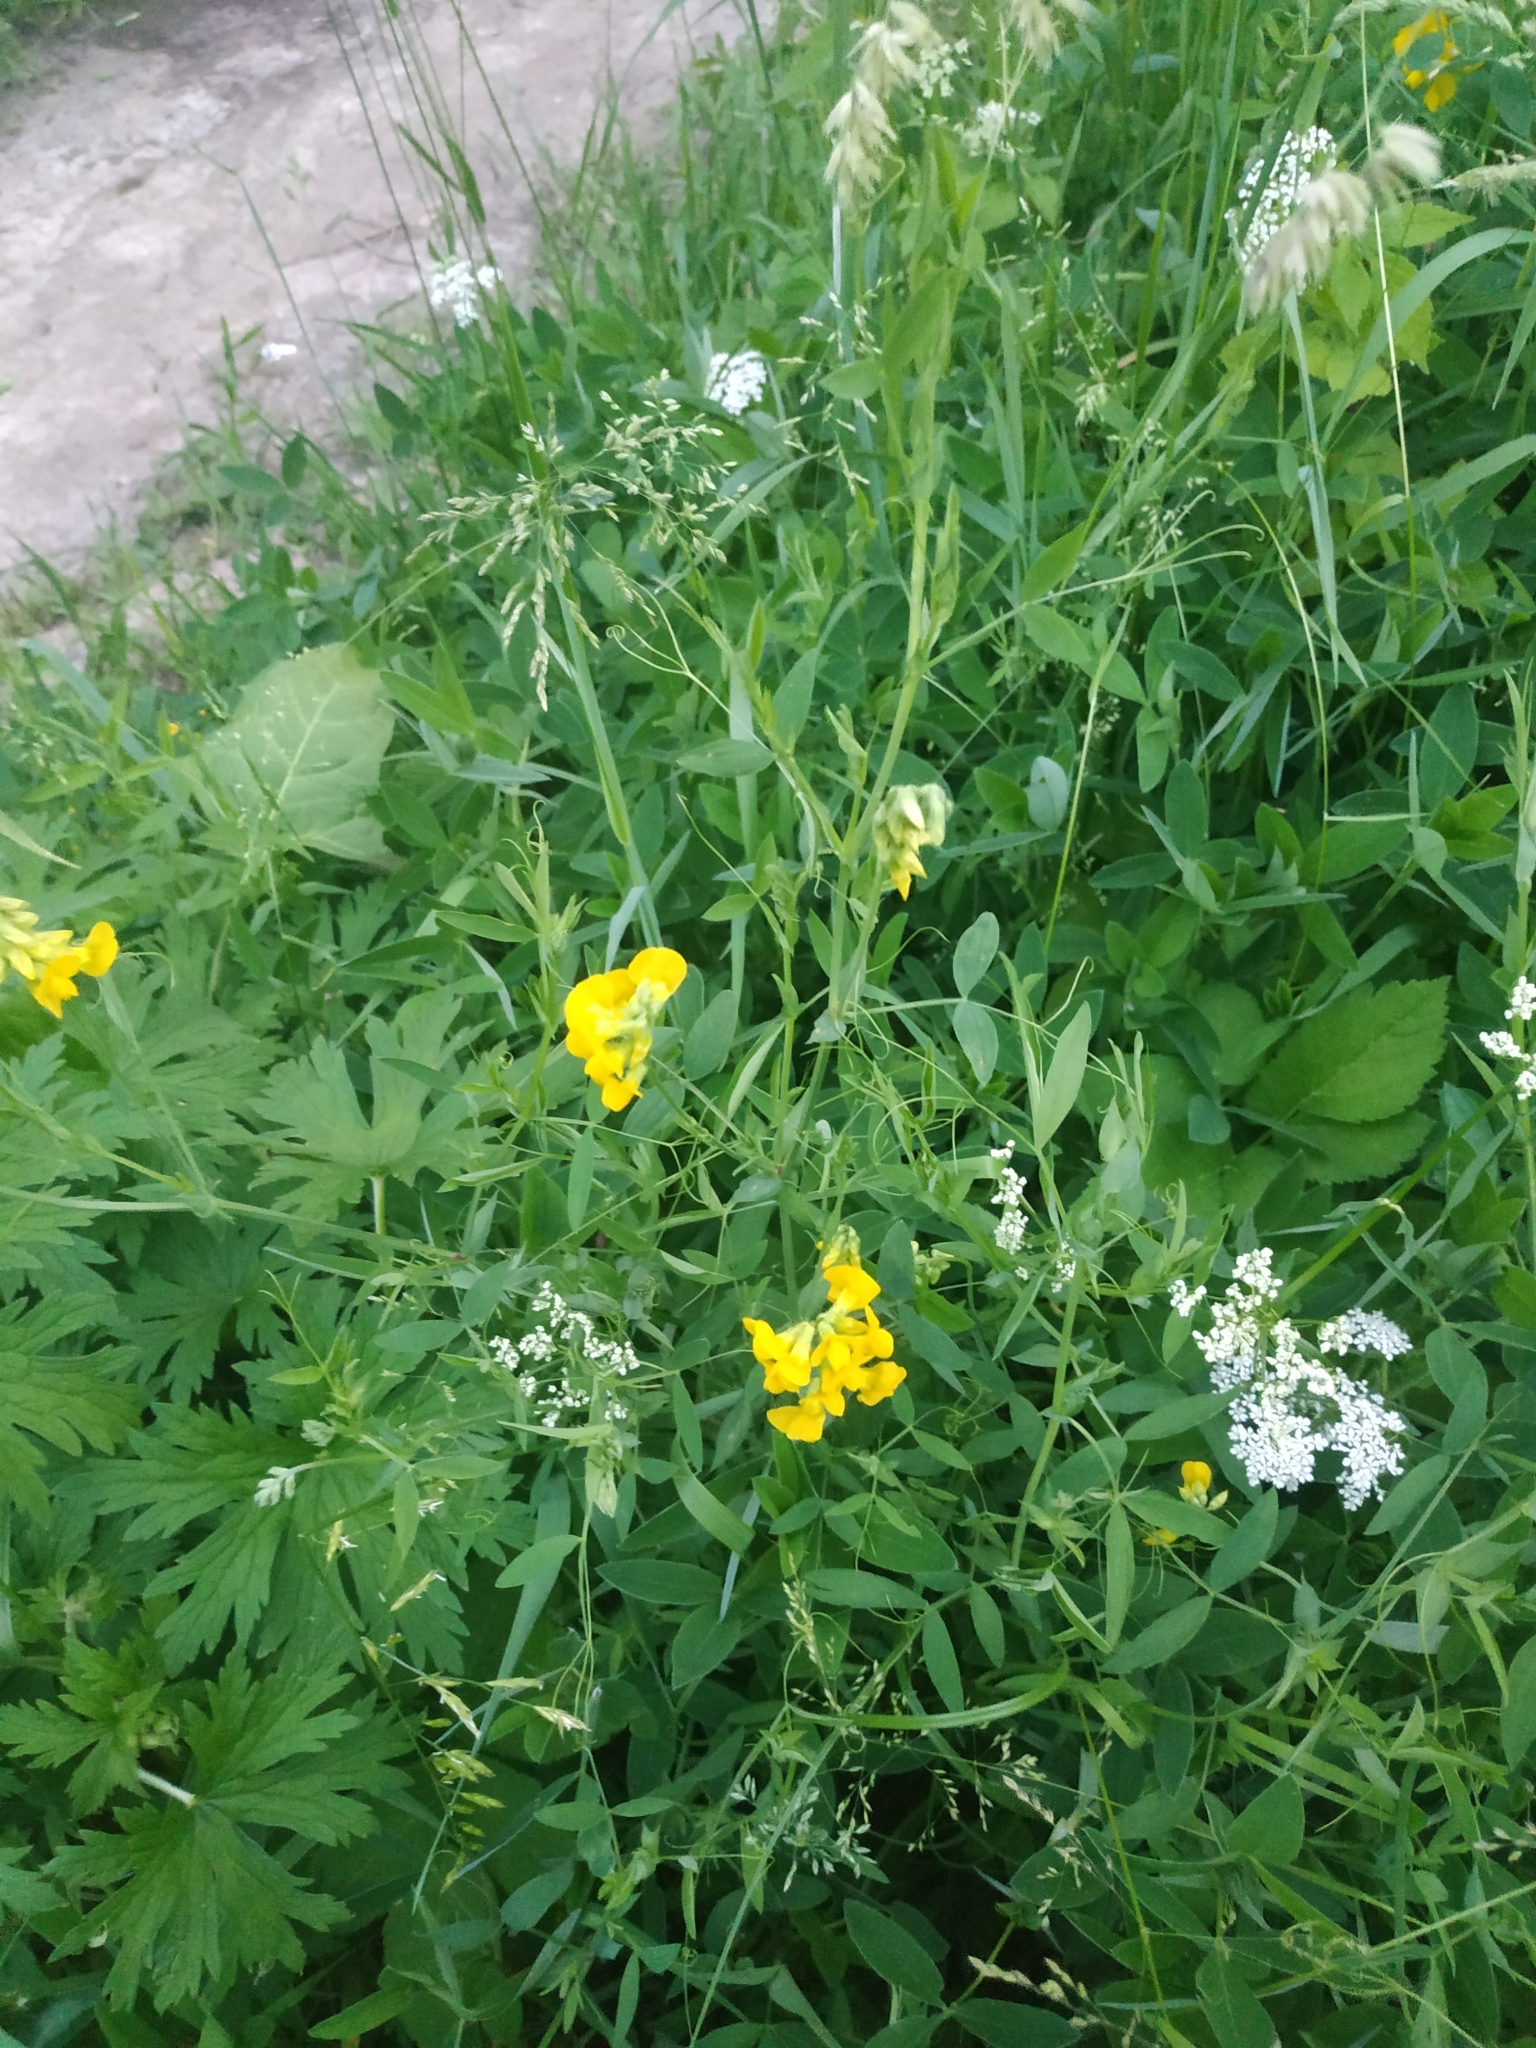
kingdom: Plantae
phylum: Tracheophyta
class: Magnoliopsida
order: Fabales
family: Fabaceae
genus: Lathyrus
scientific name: Lathyrus pratensis
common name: Meadow vetchling
